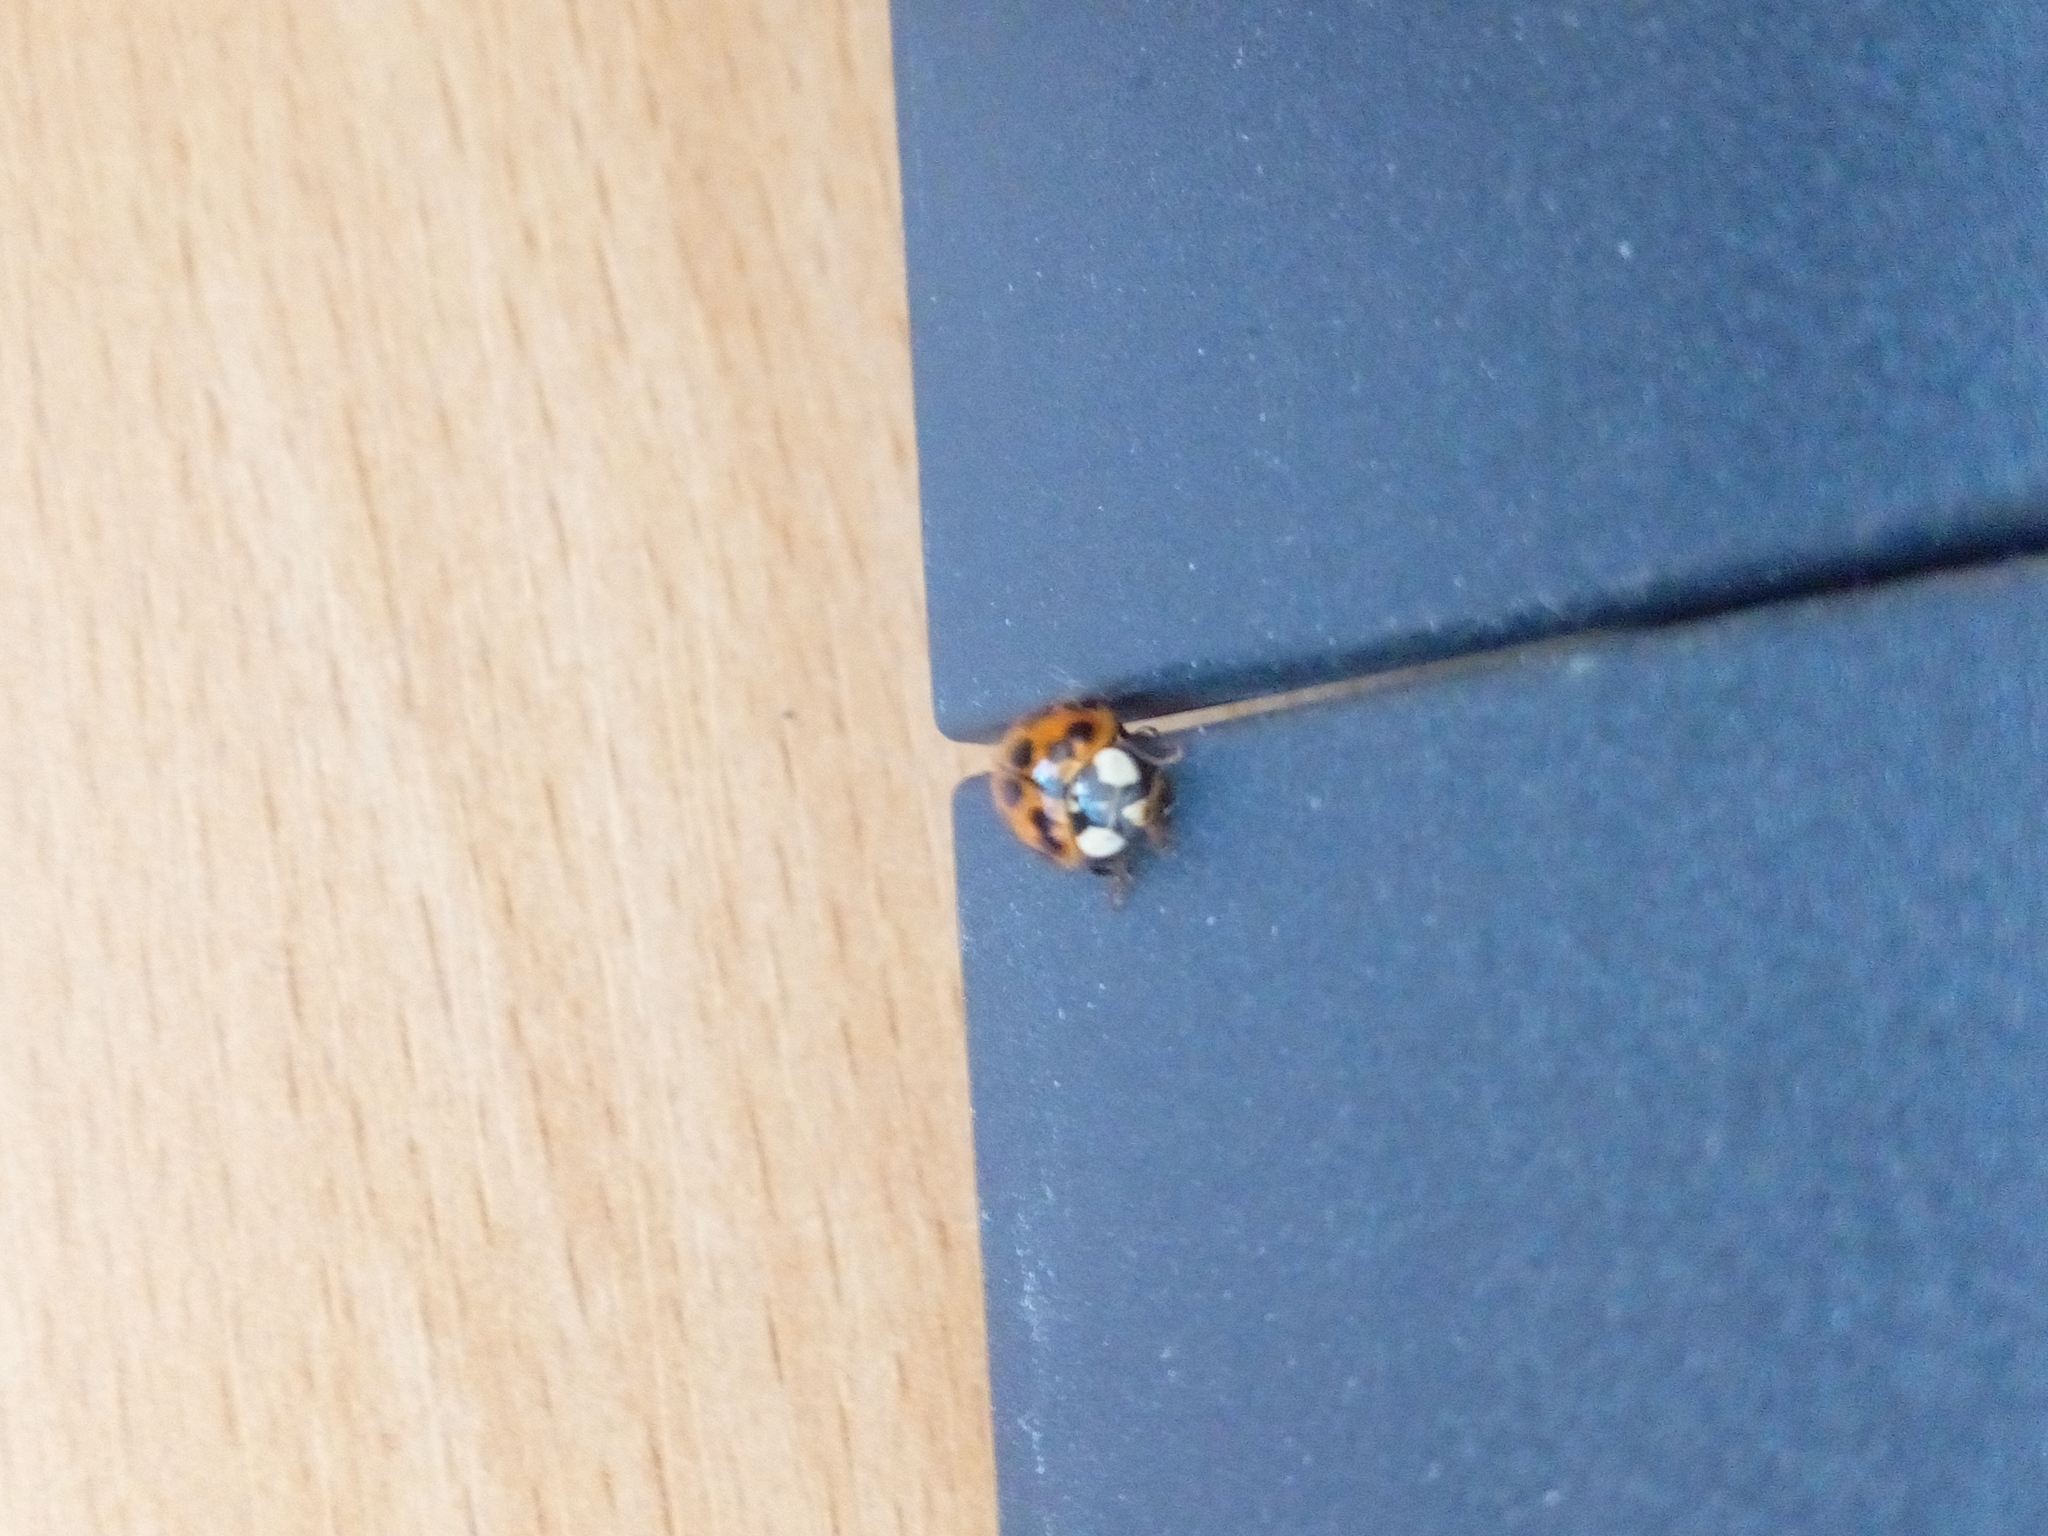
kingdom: Animalia
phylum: Arthropoda
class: Insecta
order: Coleoptera
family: Coccinellidae
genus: Harmonia
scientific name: Harmonia axyridis
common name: Harlequin ladybird
